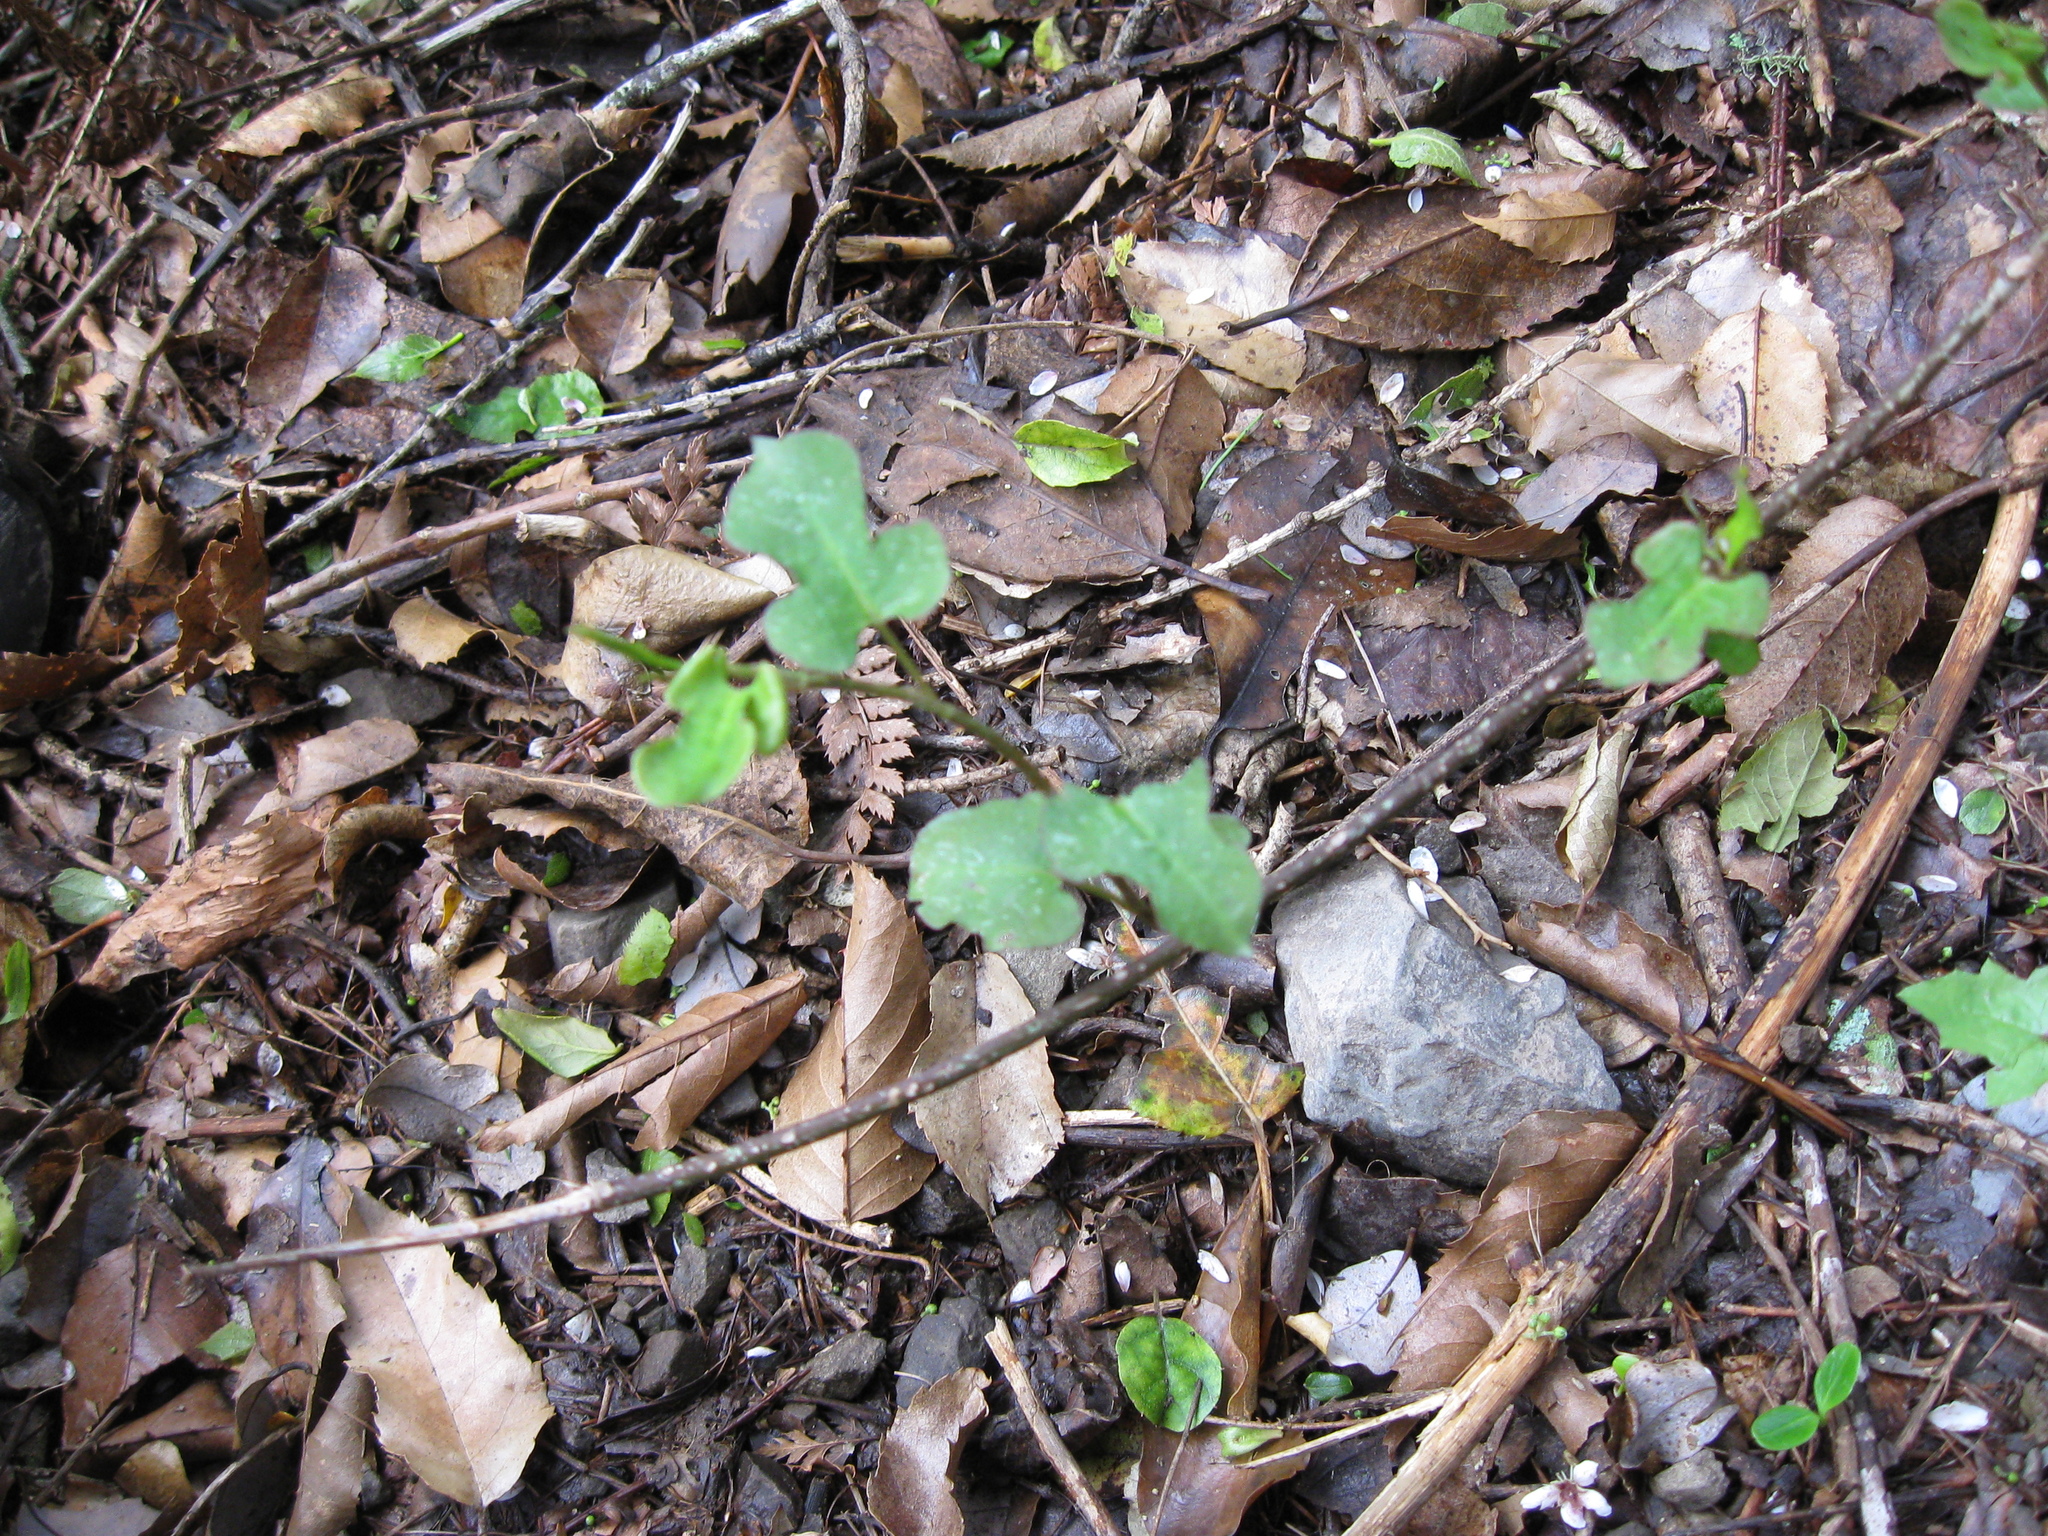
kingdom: Plantae
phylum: Tracheophyta
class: Magnoliopsida
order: Caryophyllales
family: Polygonaceae
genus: Muehlenbeckia
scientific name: Muehlenbeckia australis
